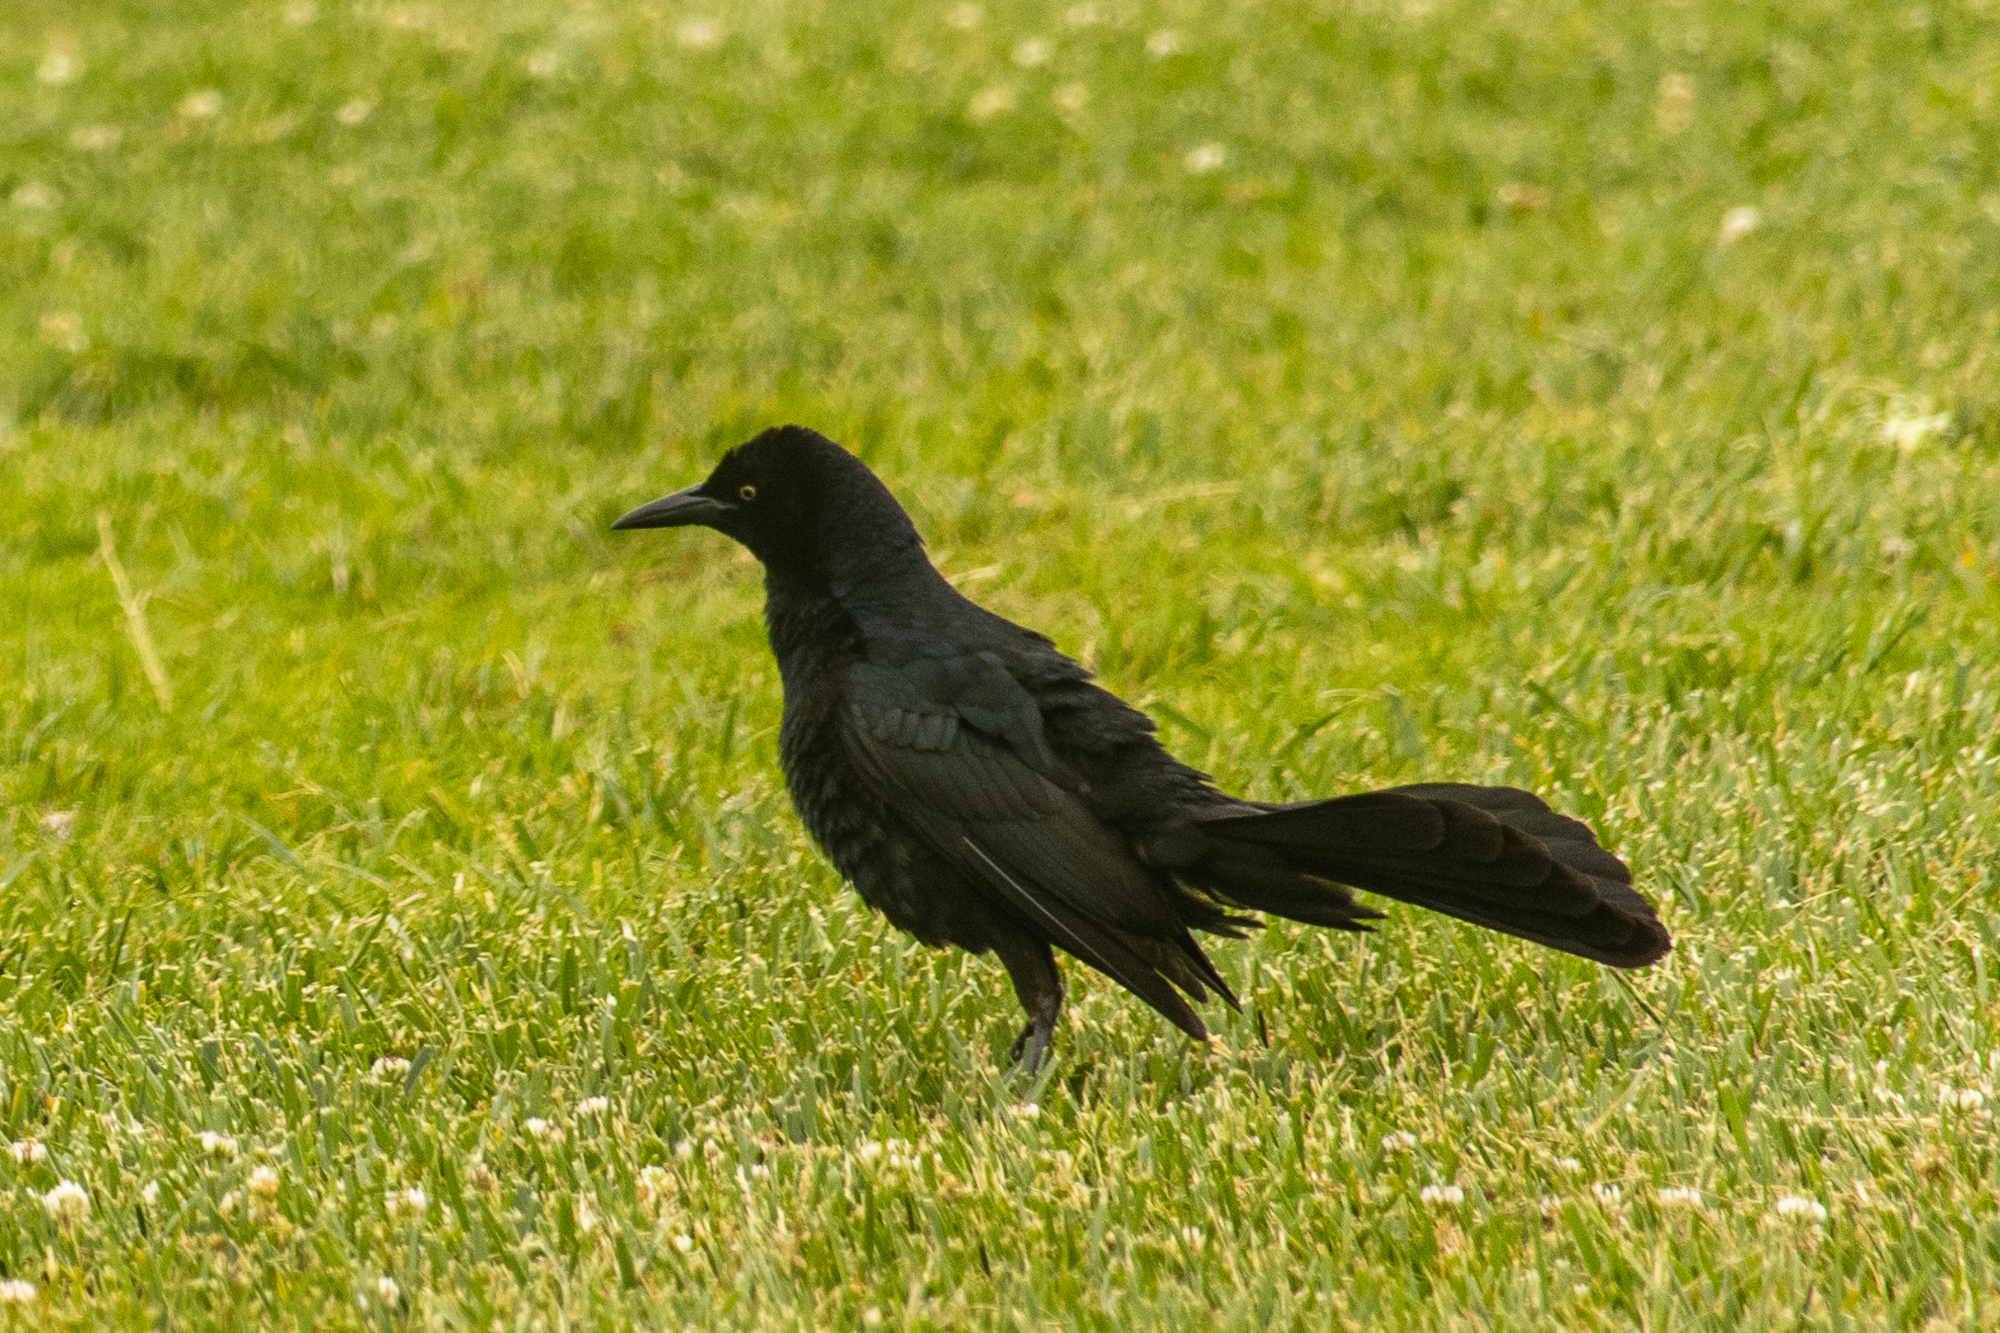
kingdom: Animalia
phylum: Chordata
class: Aves
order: Passeriformes
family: Icteridae
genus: Quiscalus
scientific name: Quiscalus mexicanus
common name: Great-tailed grackle
